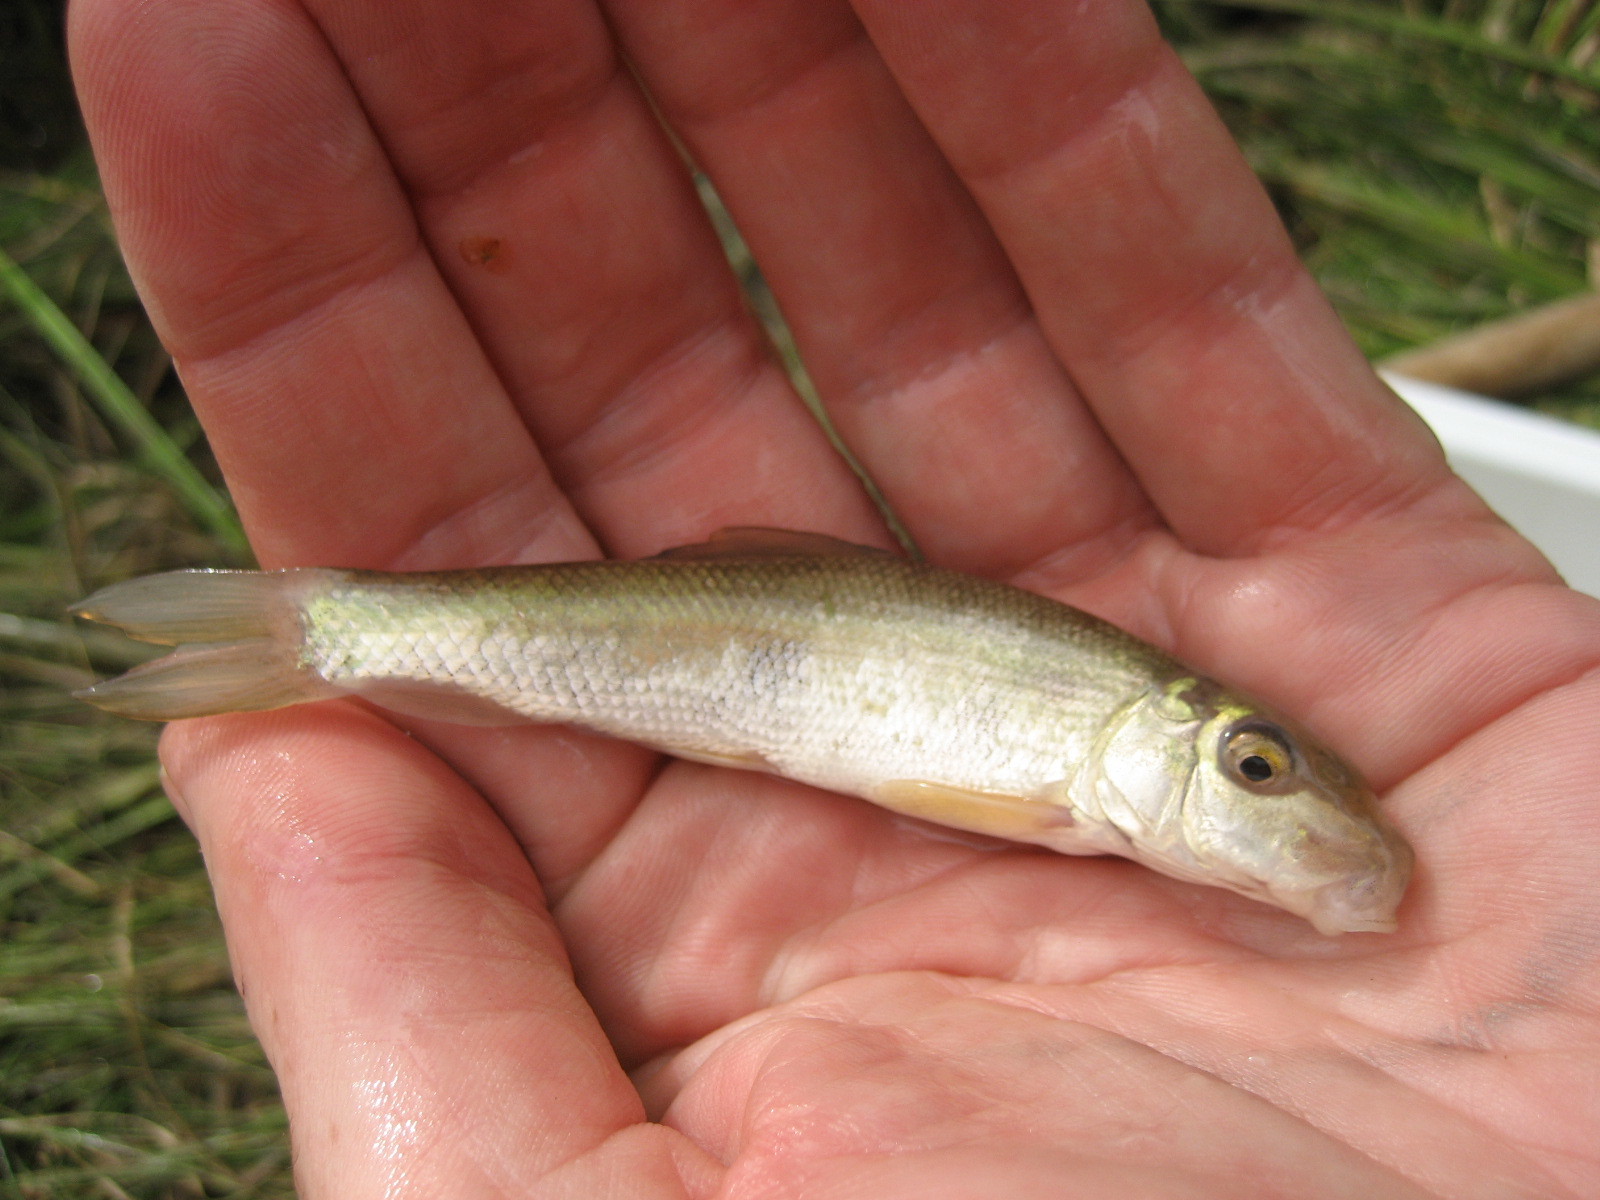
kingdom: Animalia
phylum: Chordata
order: Cypriniformes
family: Catostomidae
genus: Catostomus
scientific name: Catostomus commersonii
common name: White sucker
